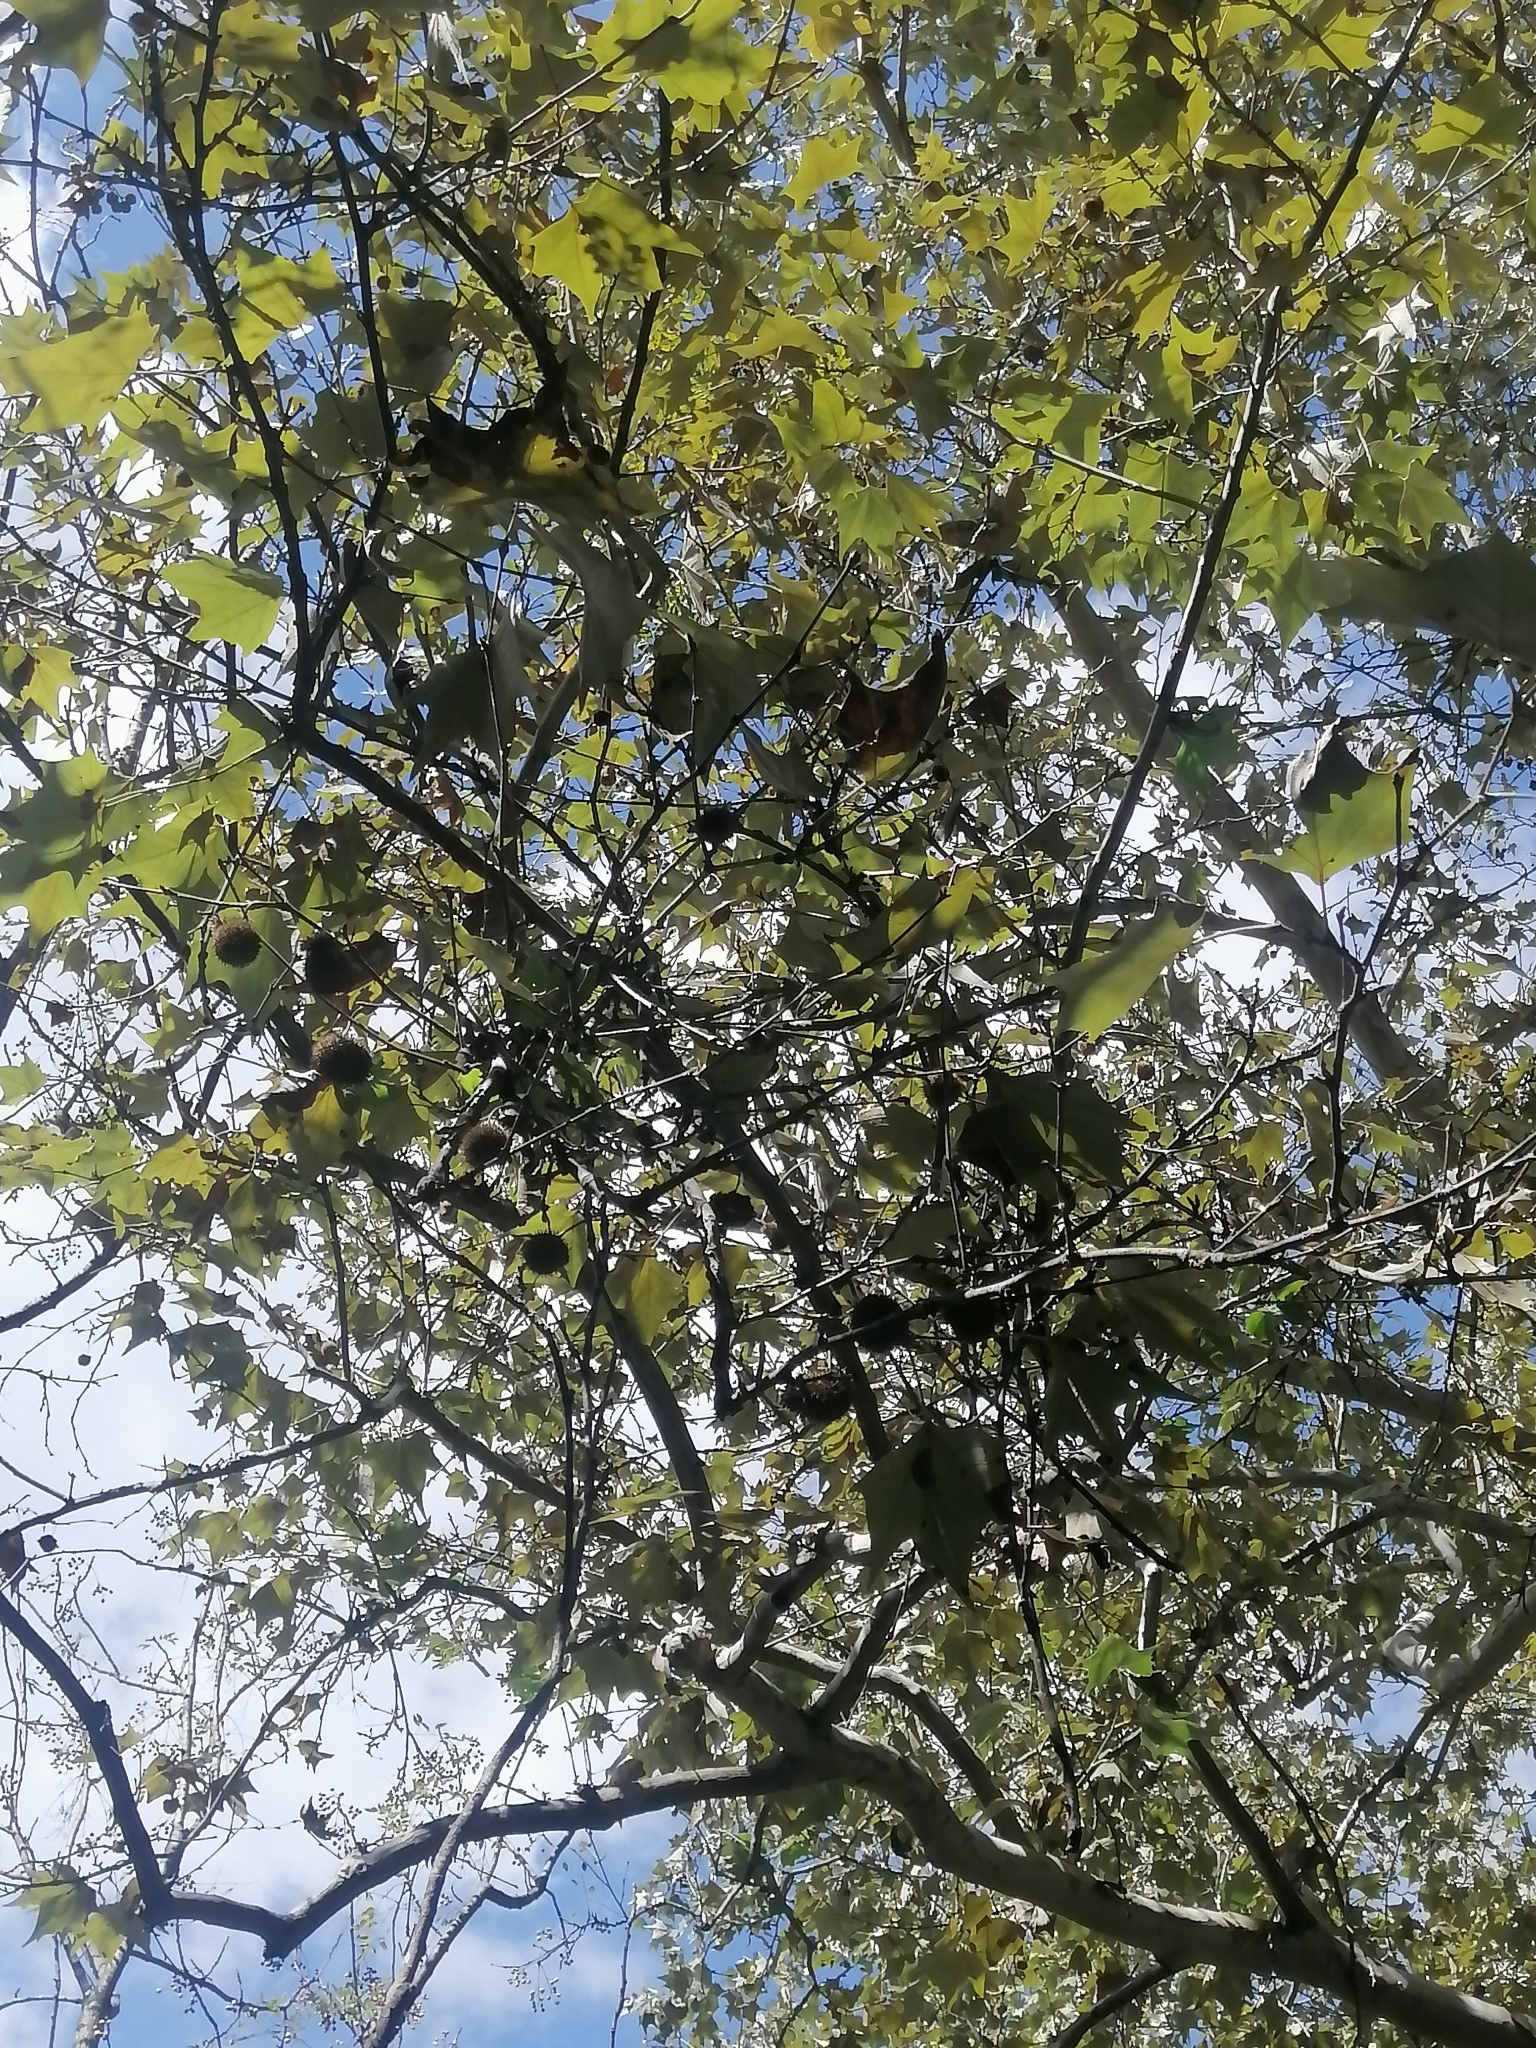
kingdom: Plantae
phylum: Tracheophyta
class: Magnoliopsida
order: Proteales
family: Platanaceae
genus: Platanus
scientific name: Platanus rzedowskii
